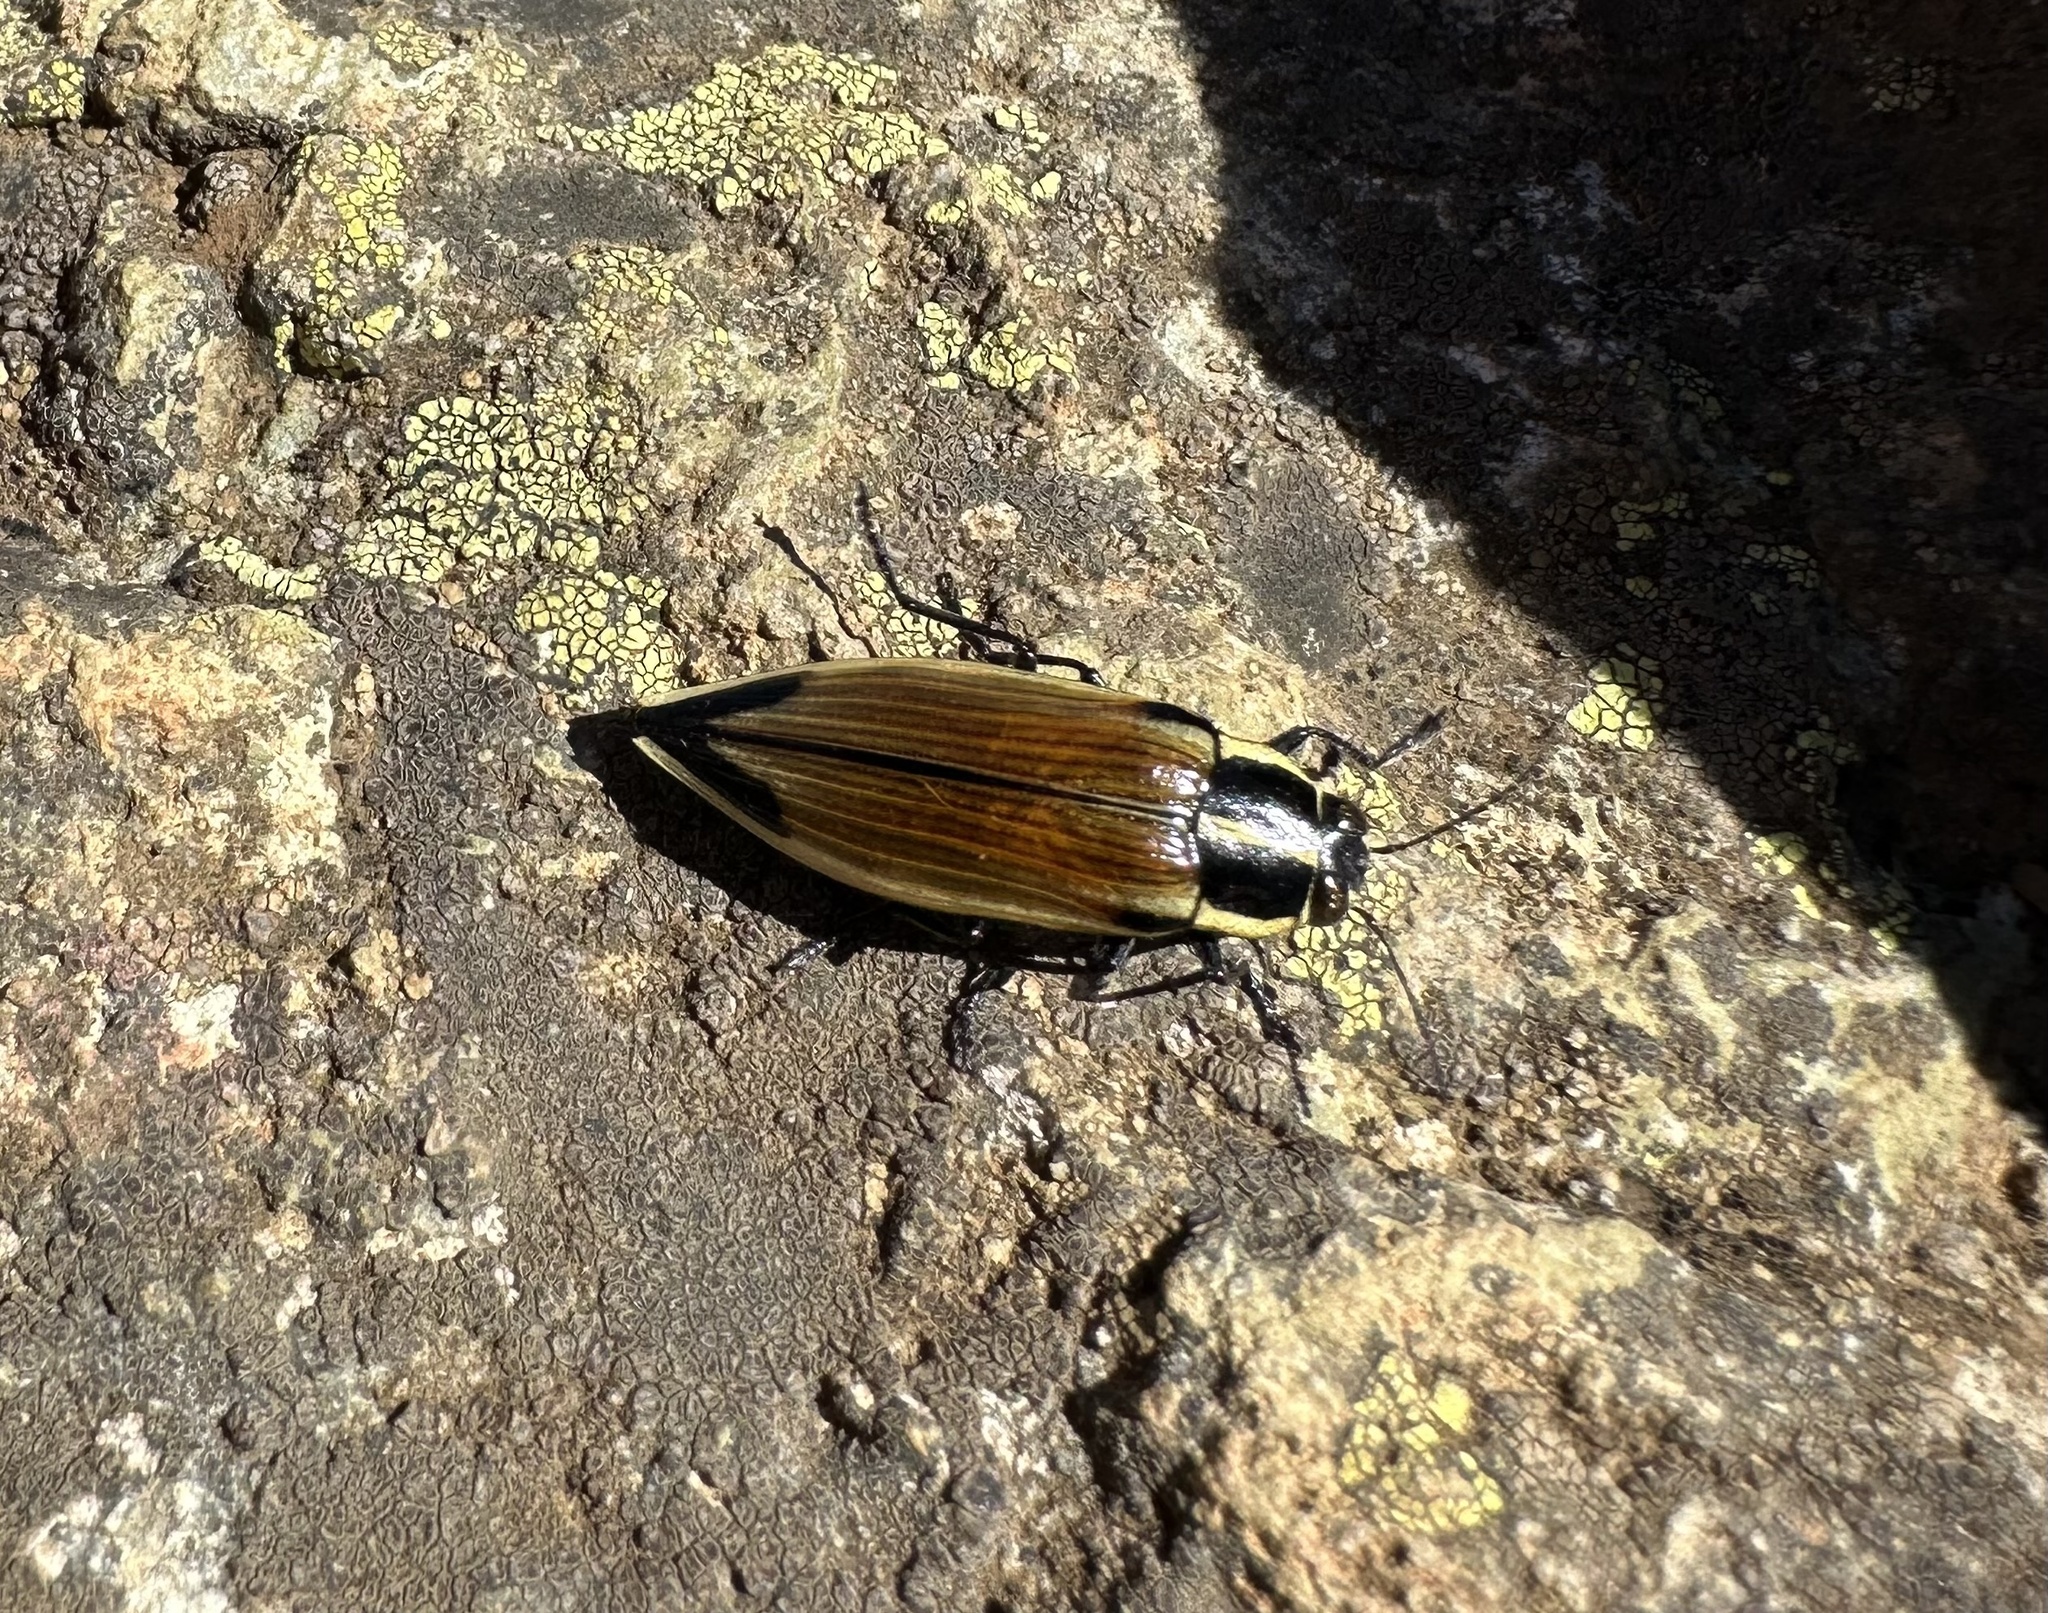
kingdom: Animalia
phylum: Arthropoda
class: Insecta
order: Coleoptera
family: Buprestidae
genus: Epistomentis
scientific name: Epistomentis pictus
